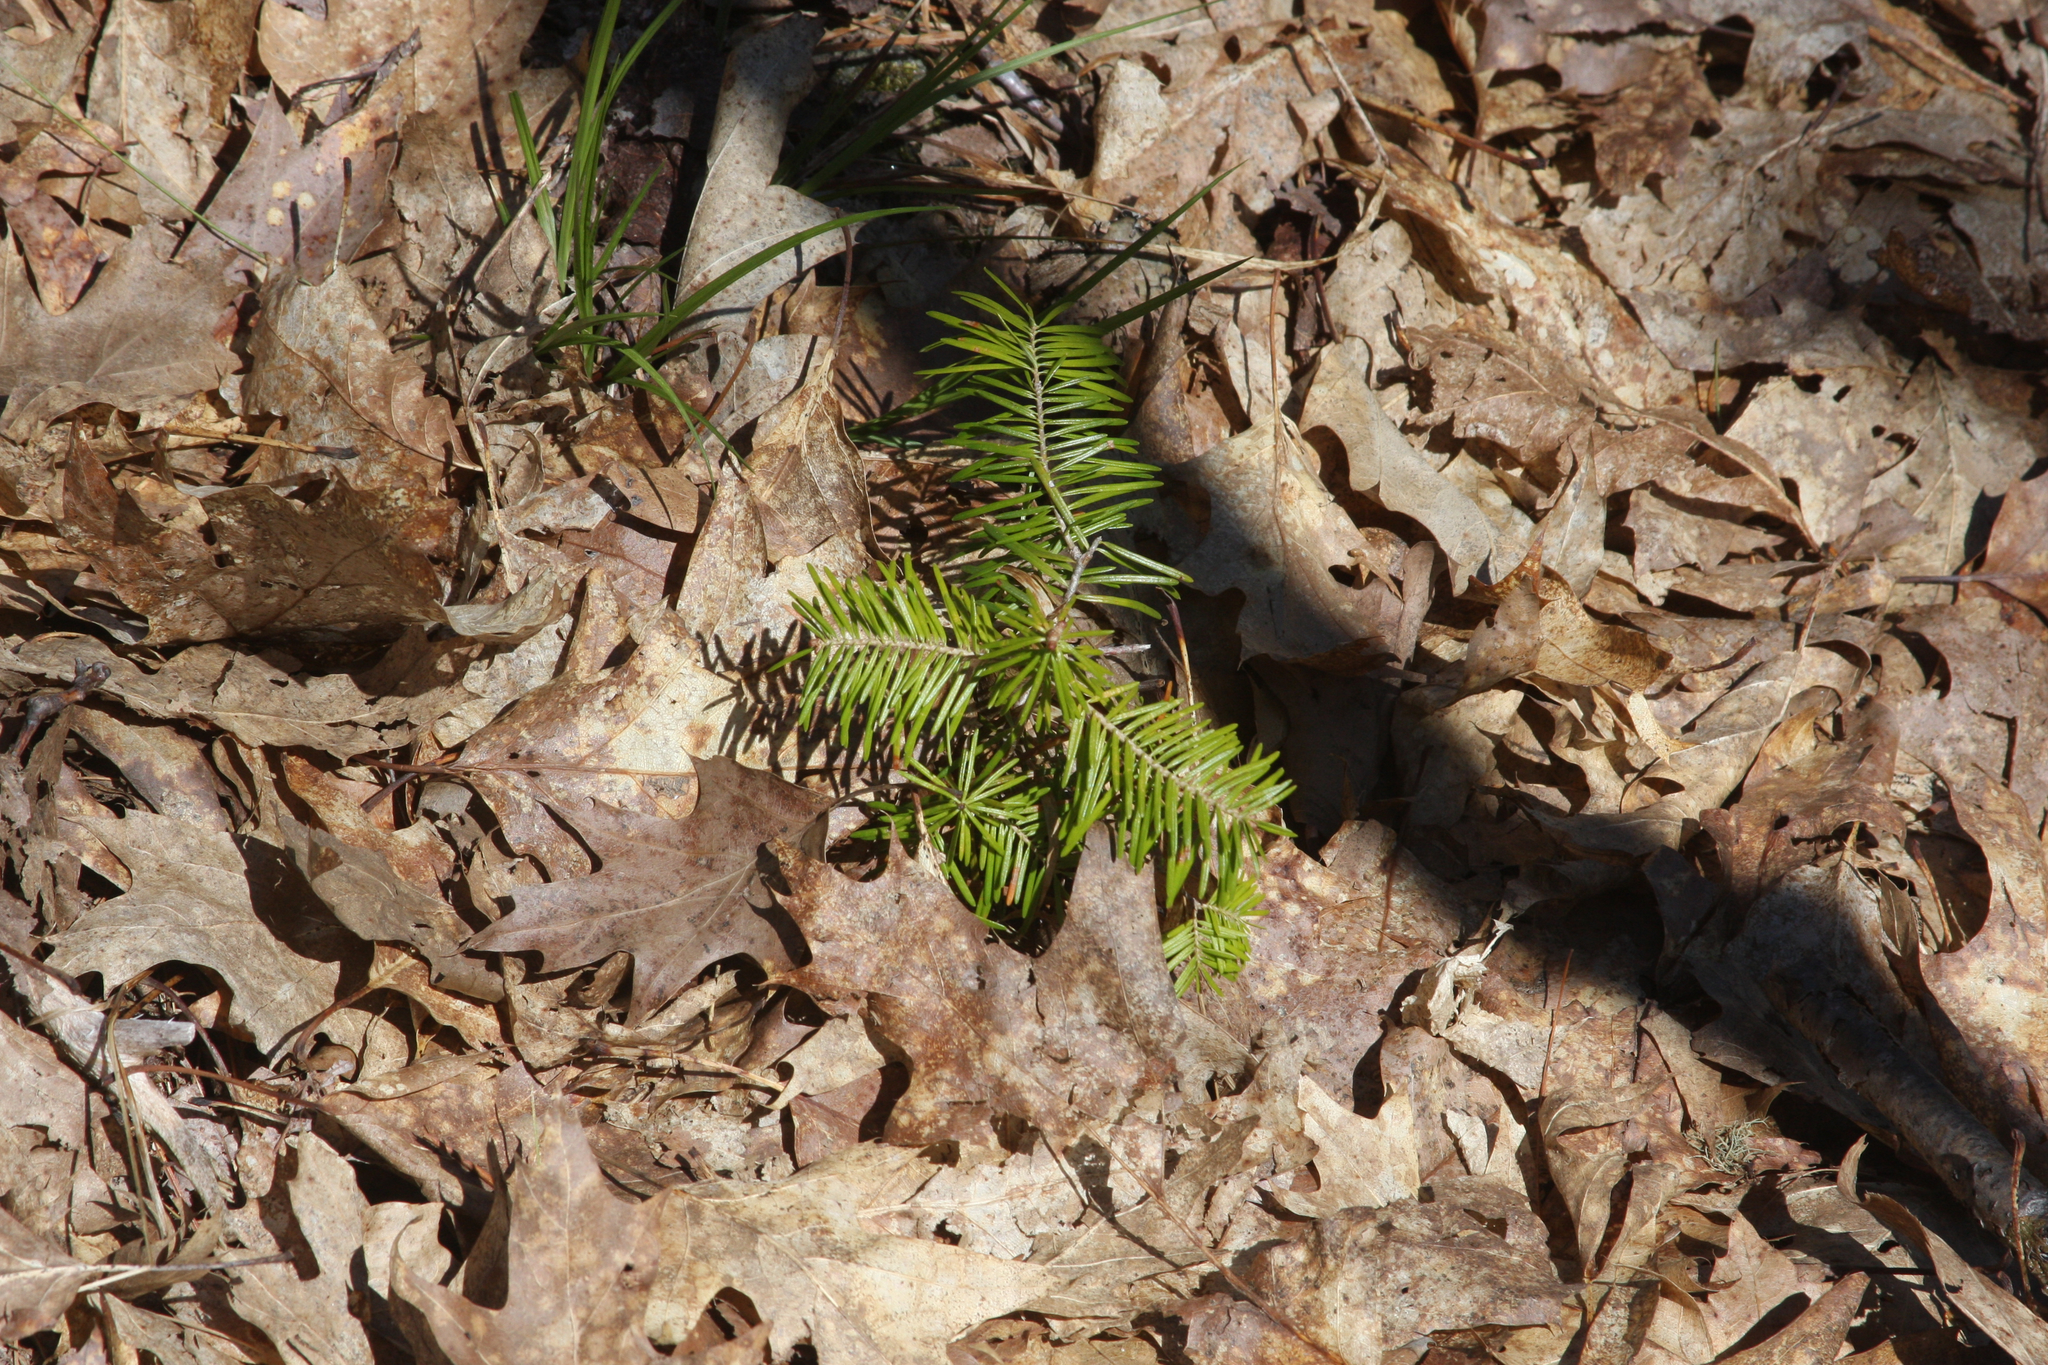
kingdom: Plantae
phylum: Tracheophyta
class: Pinopsida
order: Pinales
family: Pinaceae
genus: Abies
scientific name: Abies balsamea
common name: Balsam fir
